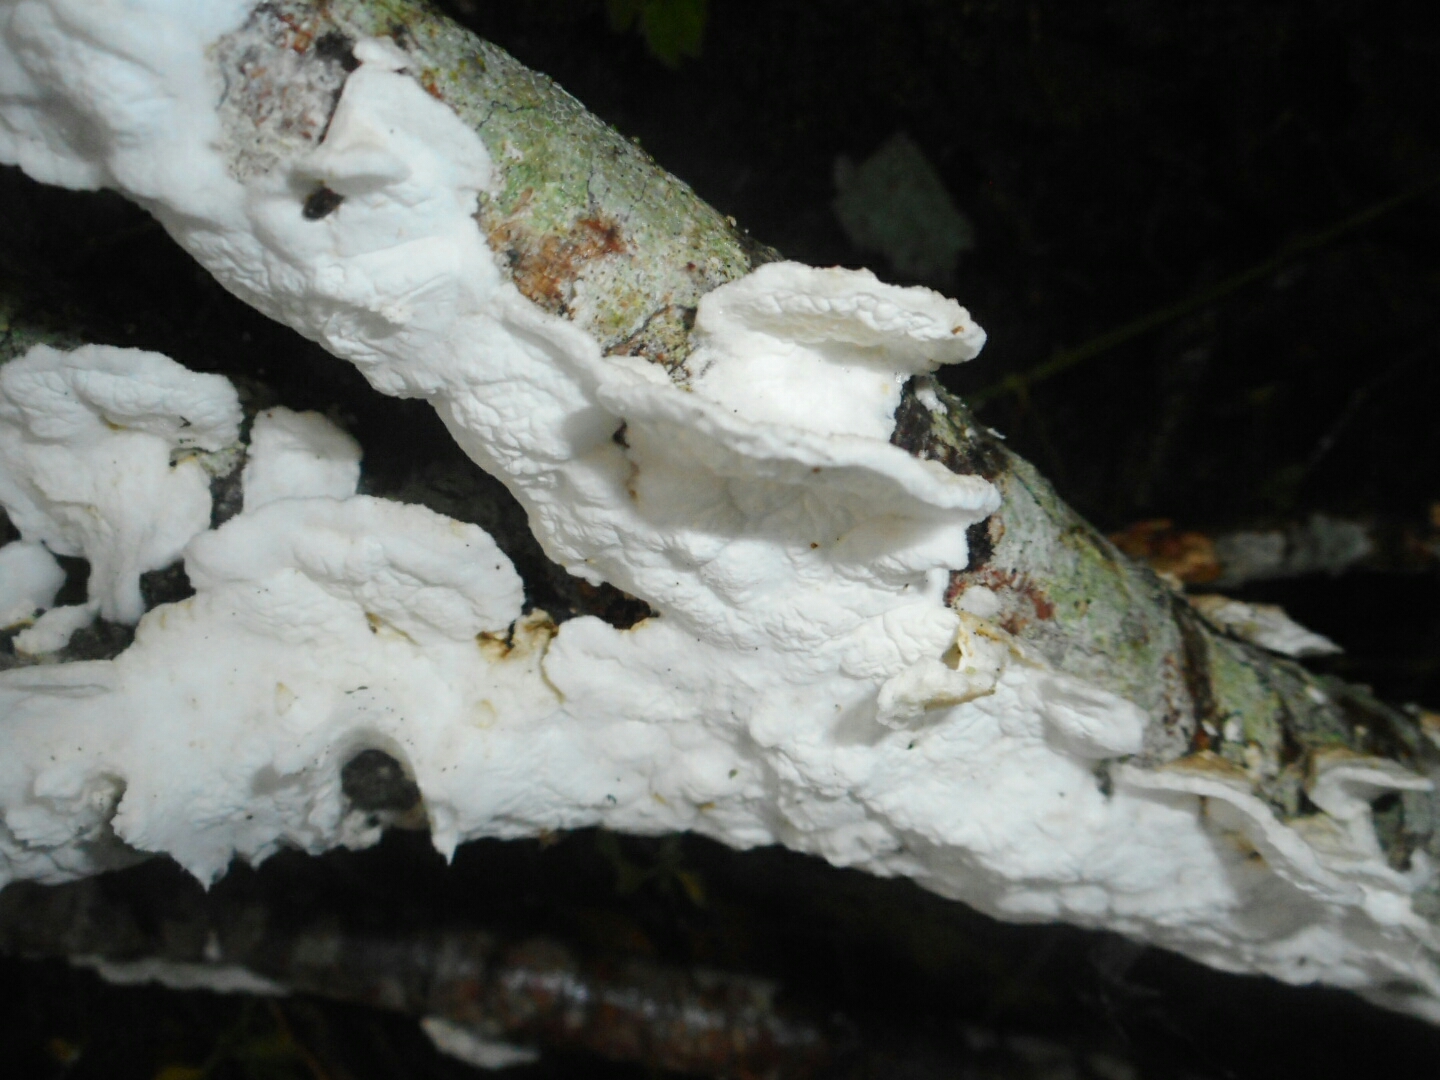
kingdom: Fungi
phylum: Basidiomycota
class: Agaricomycetes
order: Agaricales
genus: Plicatura
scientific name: Plicatura nivea
